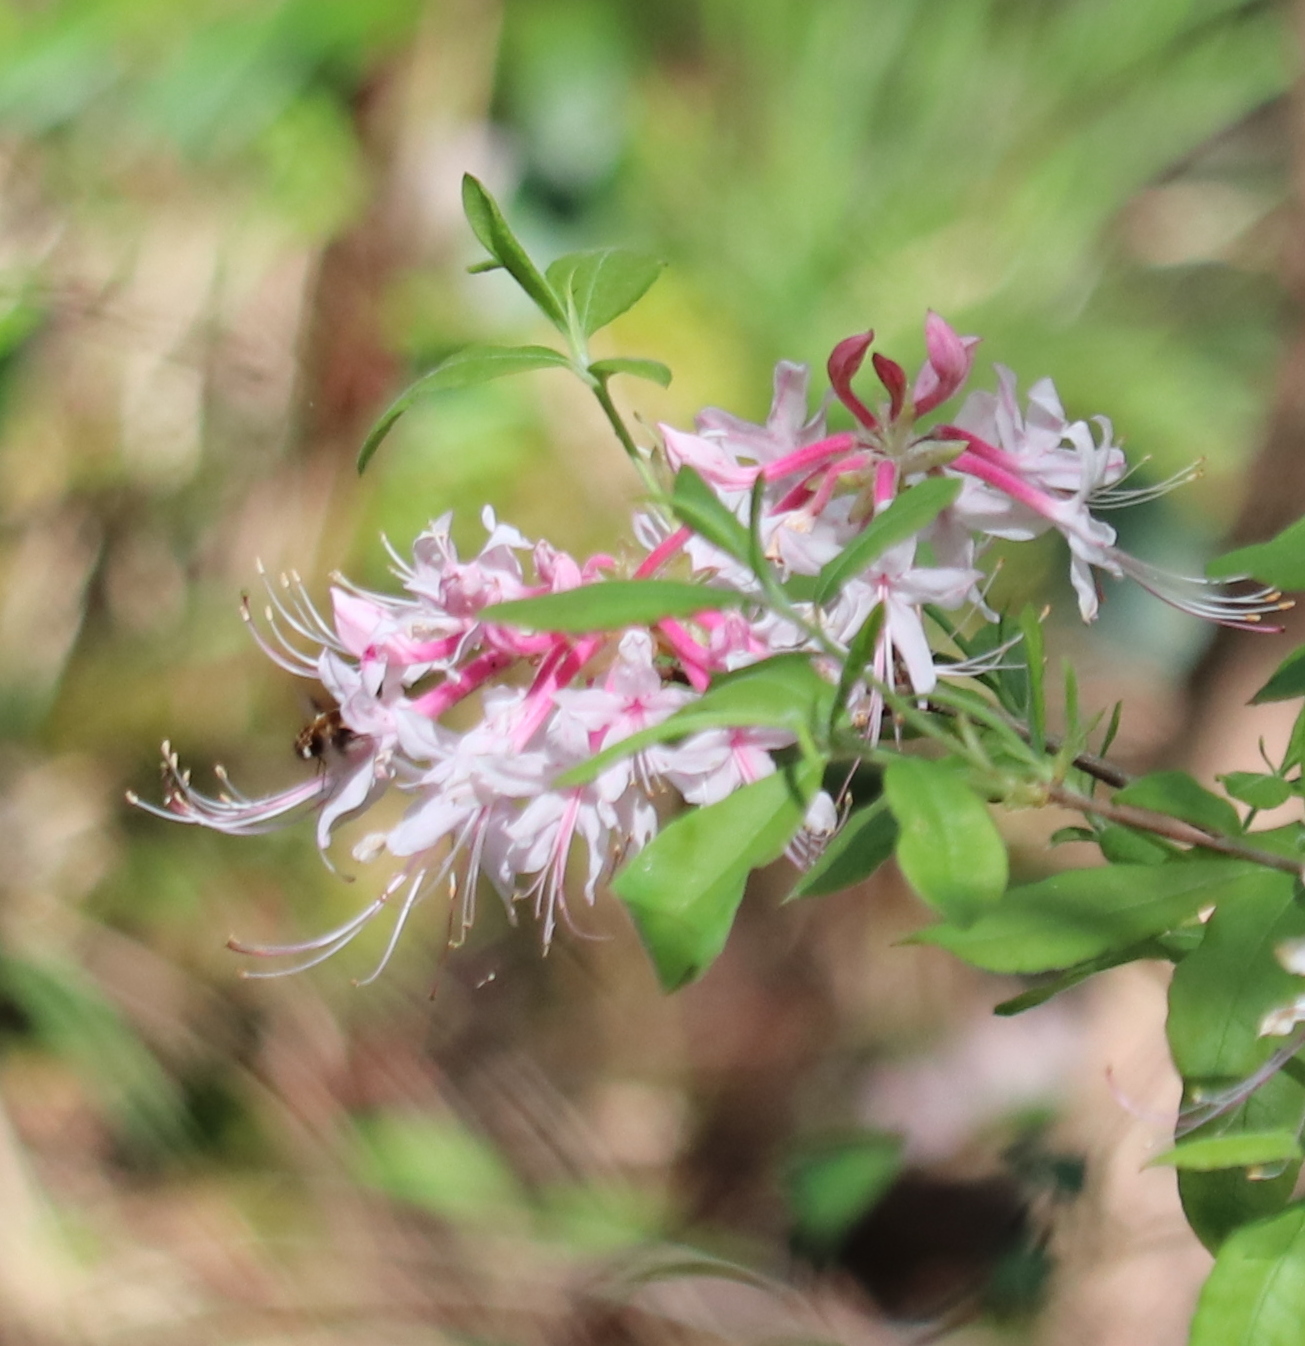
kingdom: Plantae
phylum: Tracheophyta
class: Magnoliopsida
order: Ericales
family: Ericaceae
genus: Rhododendron
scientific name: Rhododendron canescens
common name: Mountain azalea
